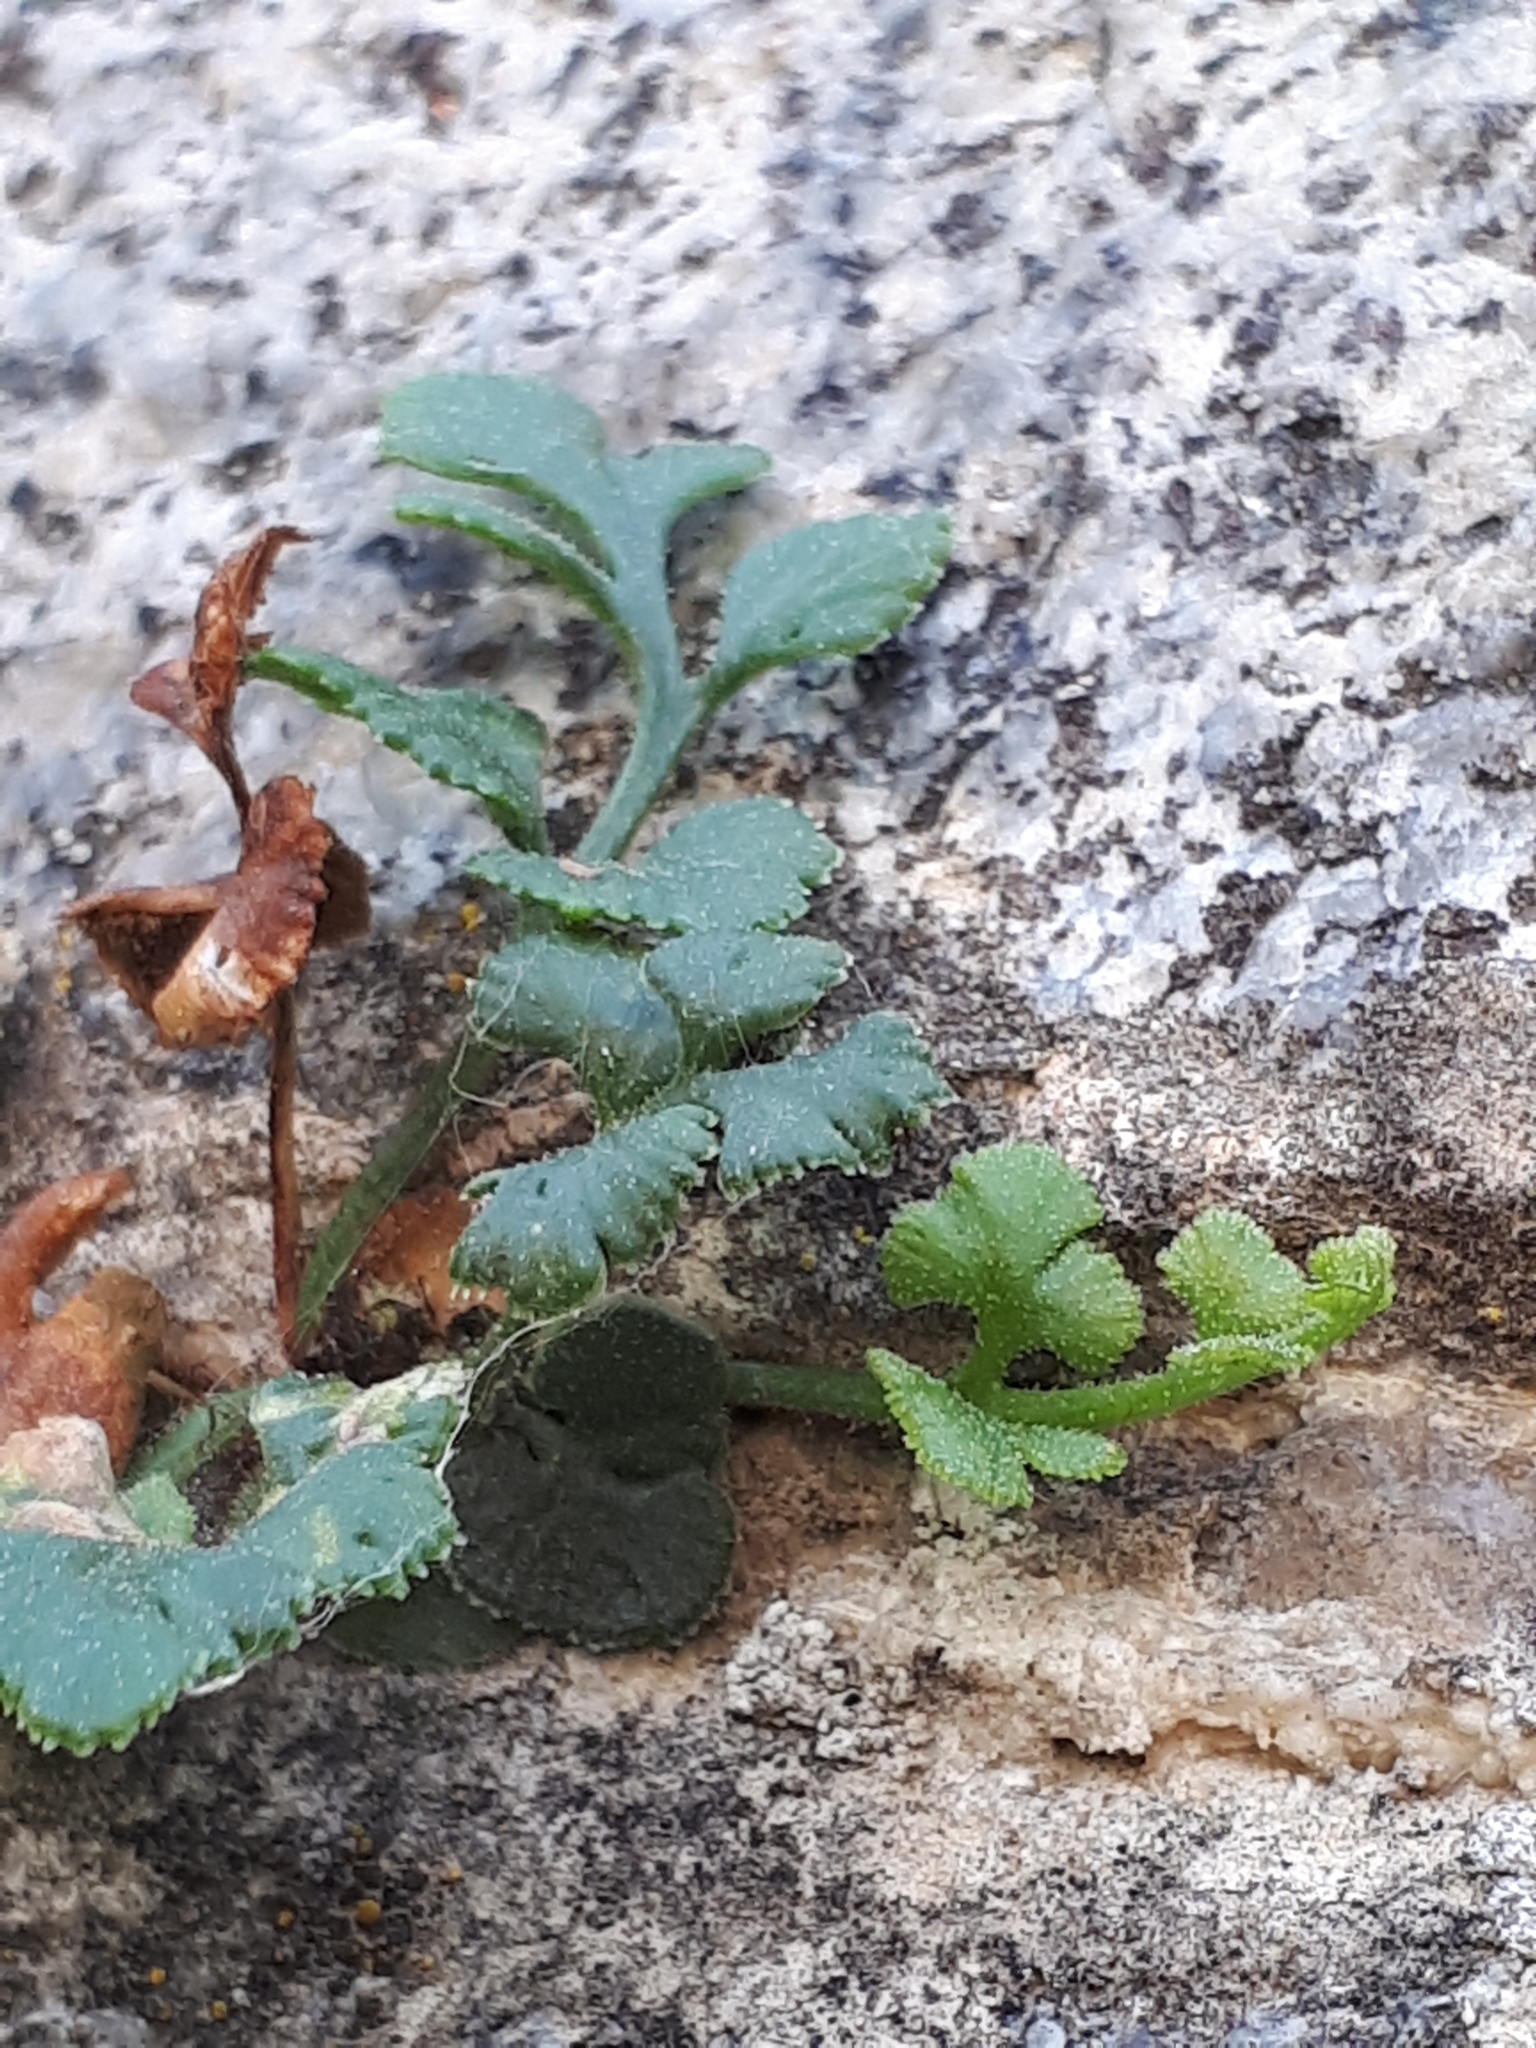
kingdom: Plantae
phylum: Tracheophyta
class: Polypodiopsida
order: Polypodiales
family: Aspleniaceae
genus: Asplenium
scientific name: Asplenium ruta-muraria
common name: Wall-rue
